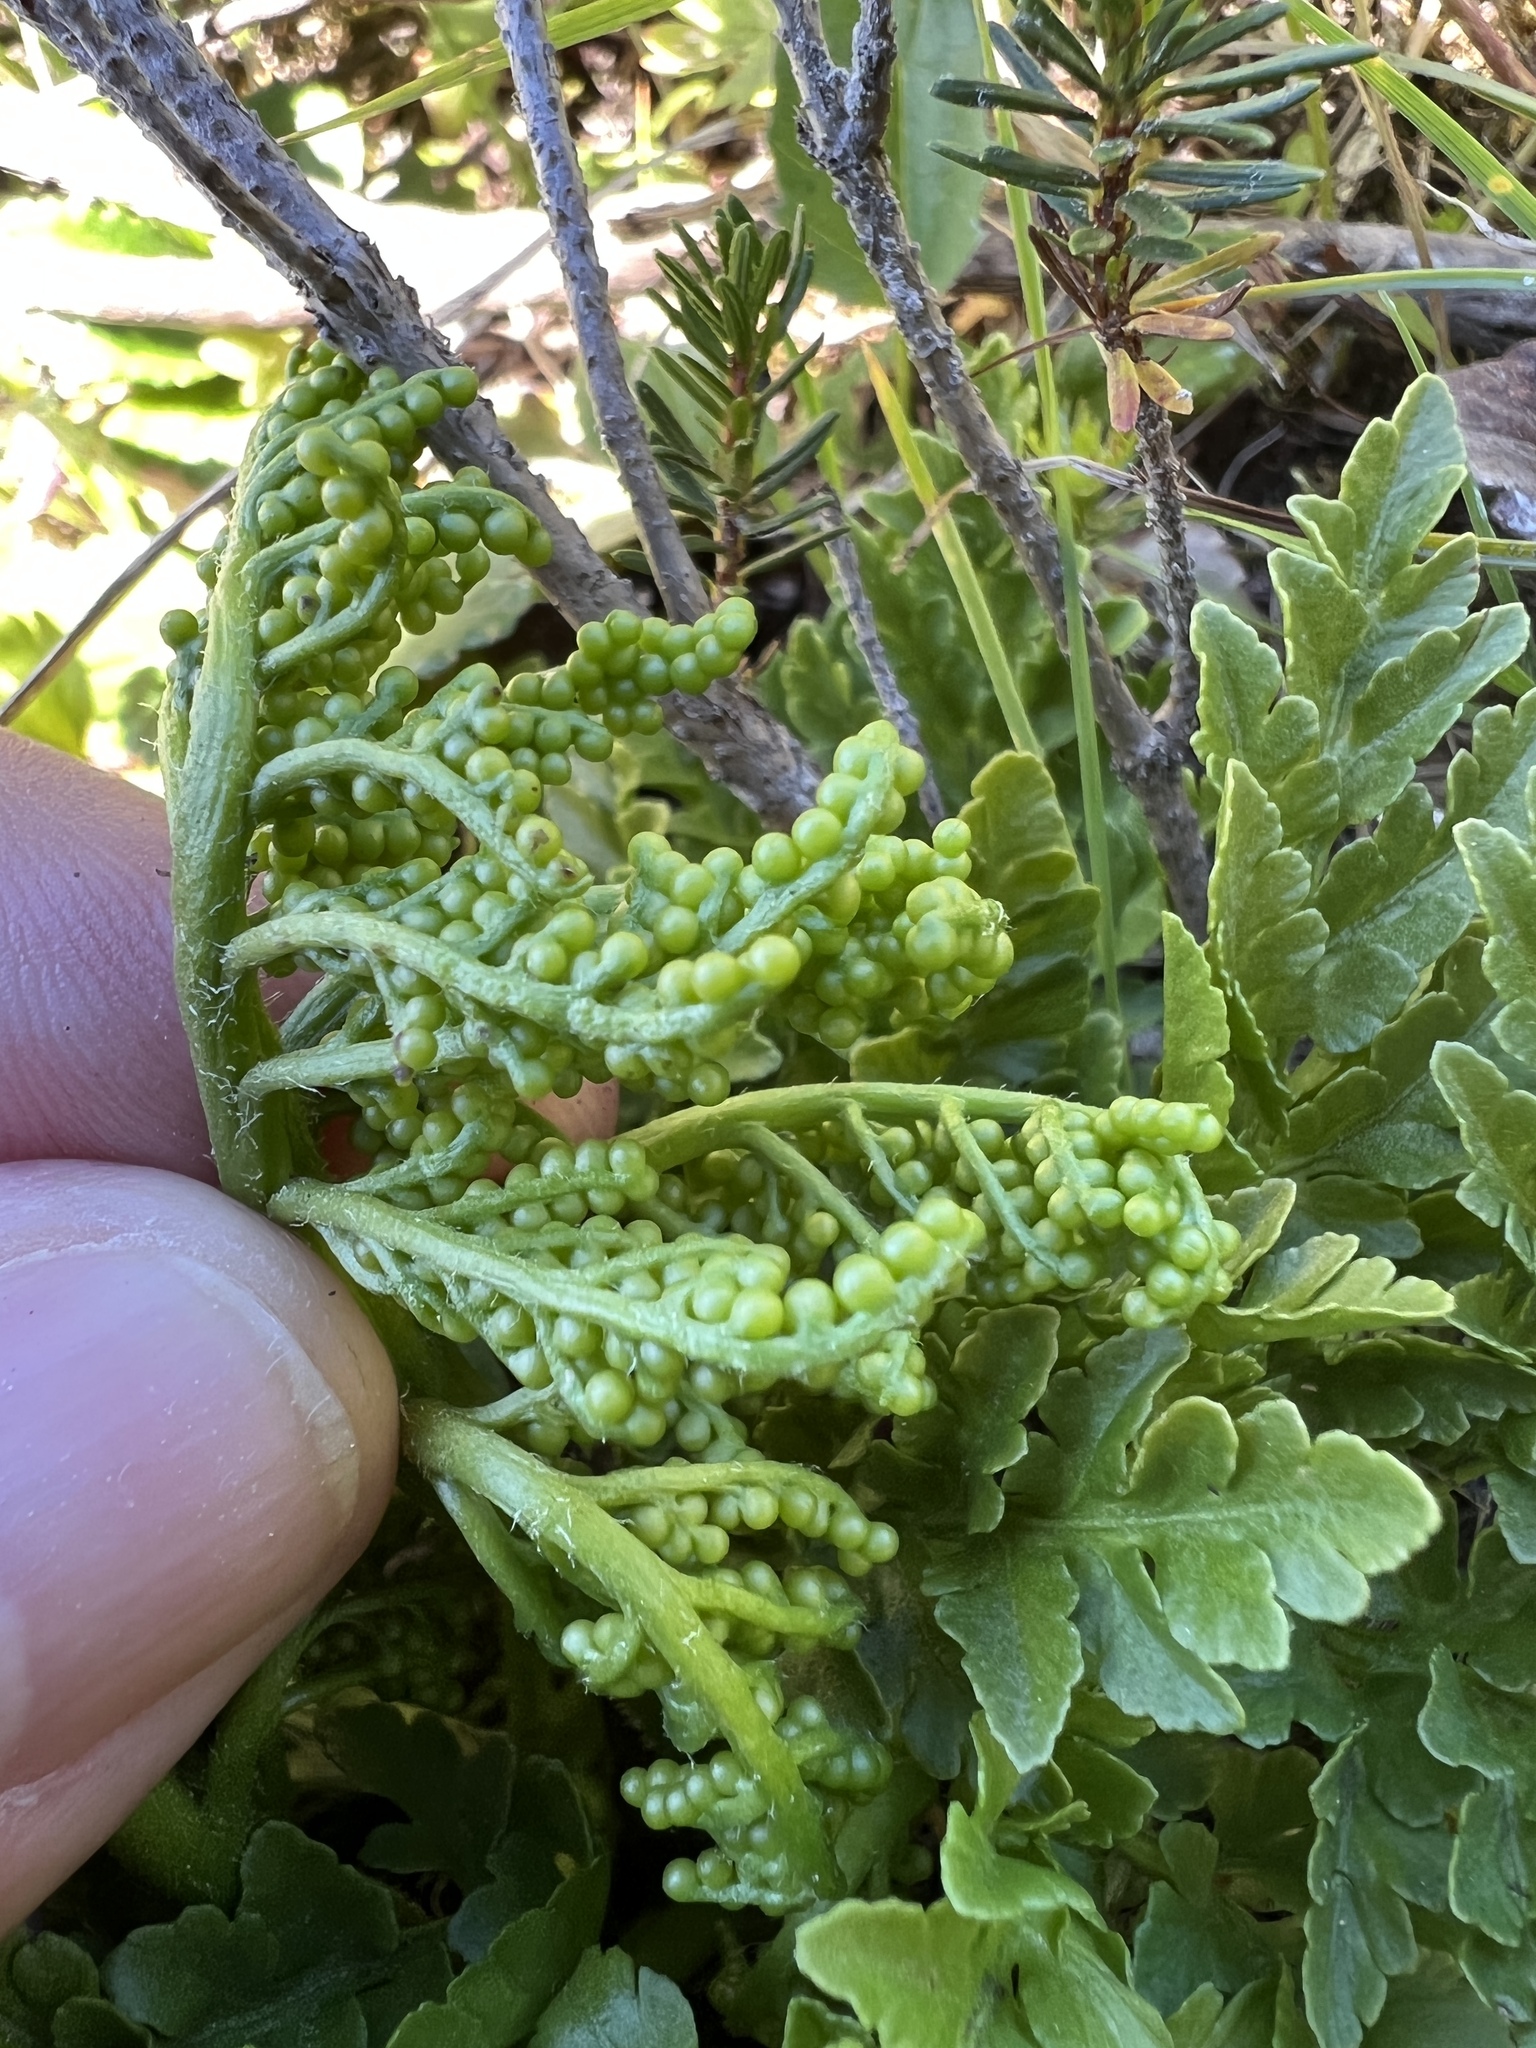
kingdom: Plantae
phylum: Tracheophyta
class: Polypodiopsida
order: Ophioglossales
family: Ophioglossaceae
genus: Sceptridium
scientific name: Sceptridium multifidum
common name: Leathery grape fern
